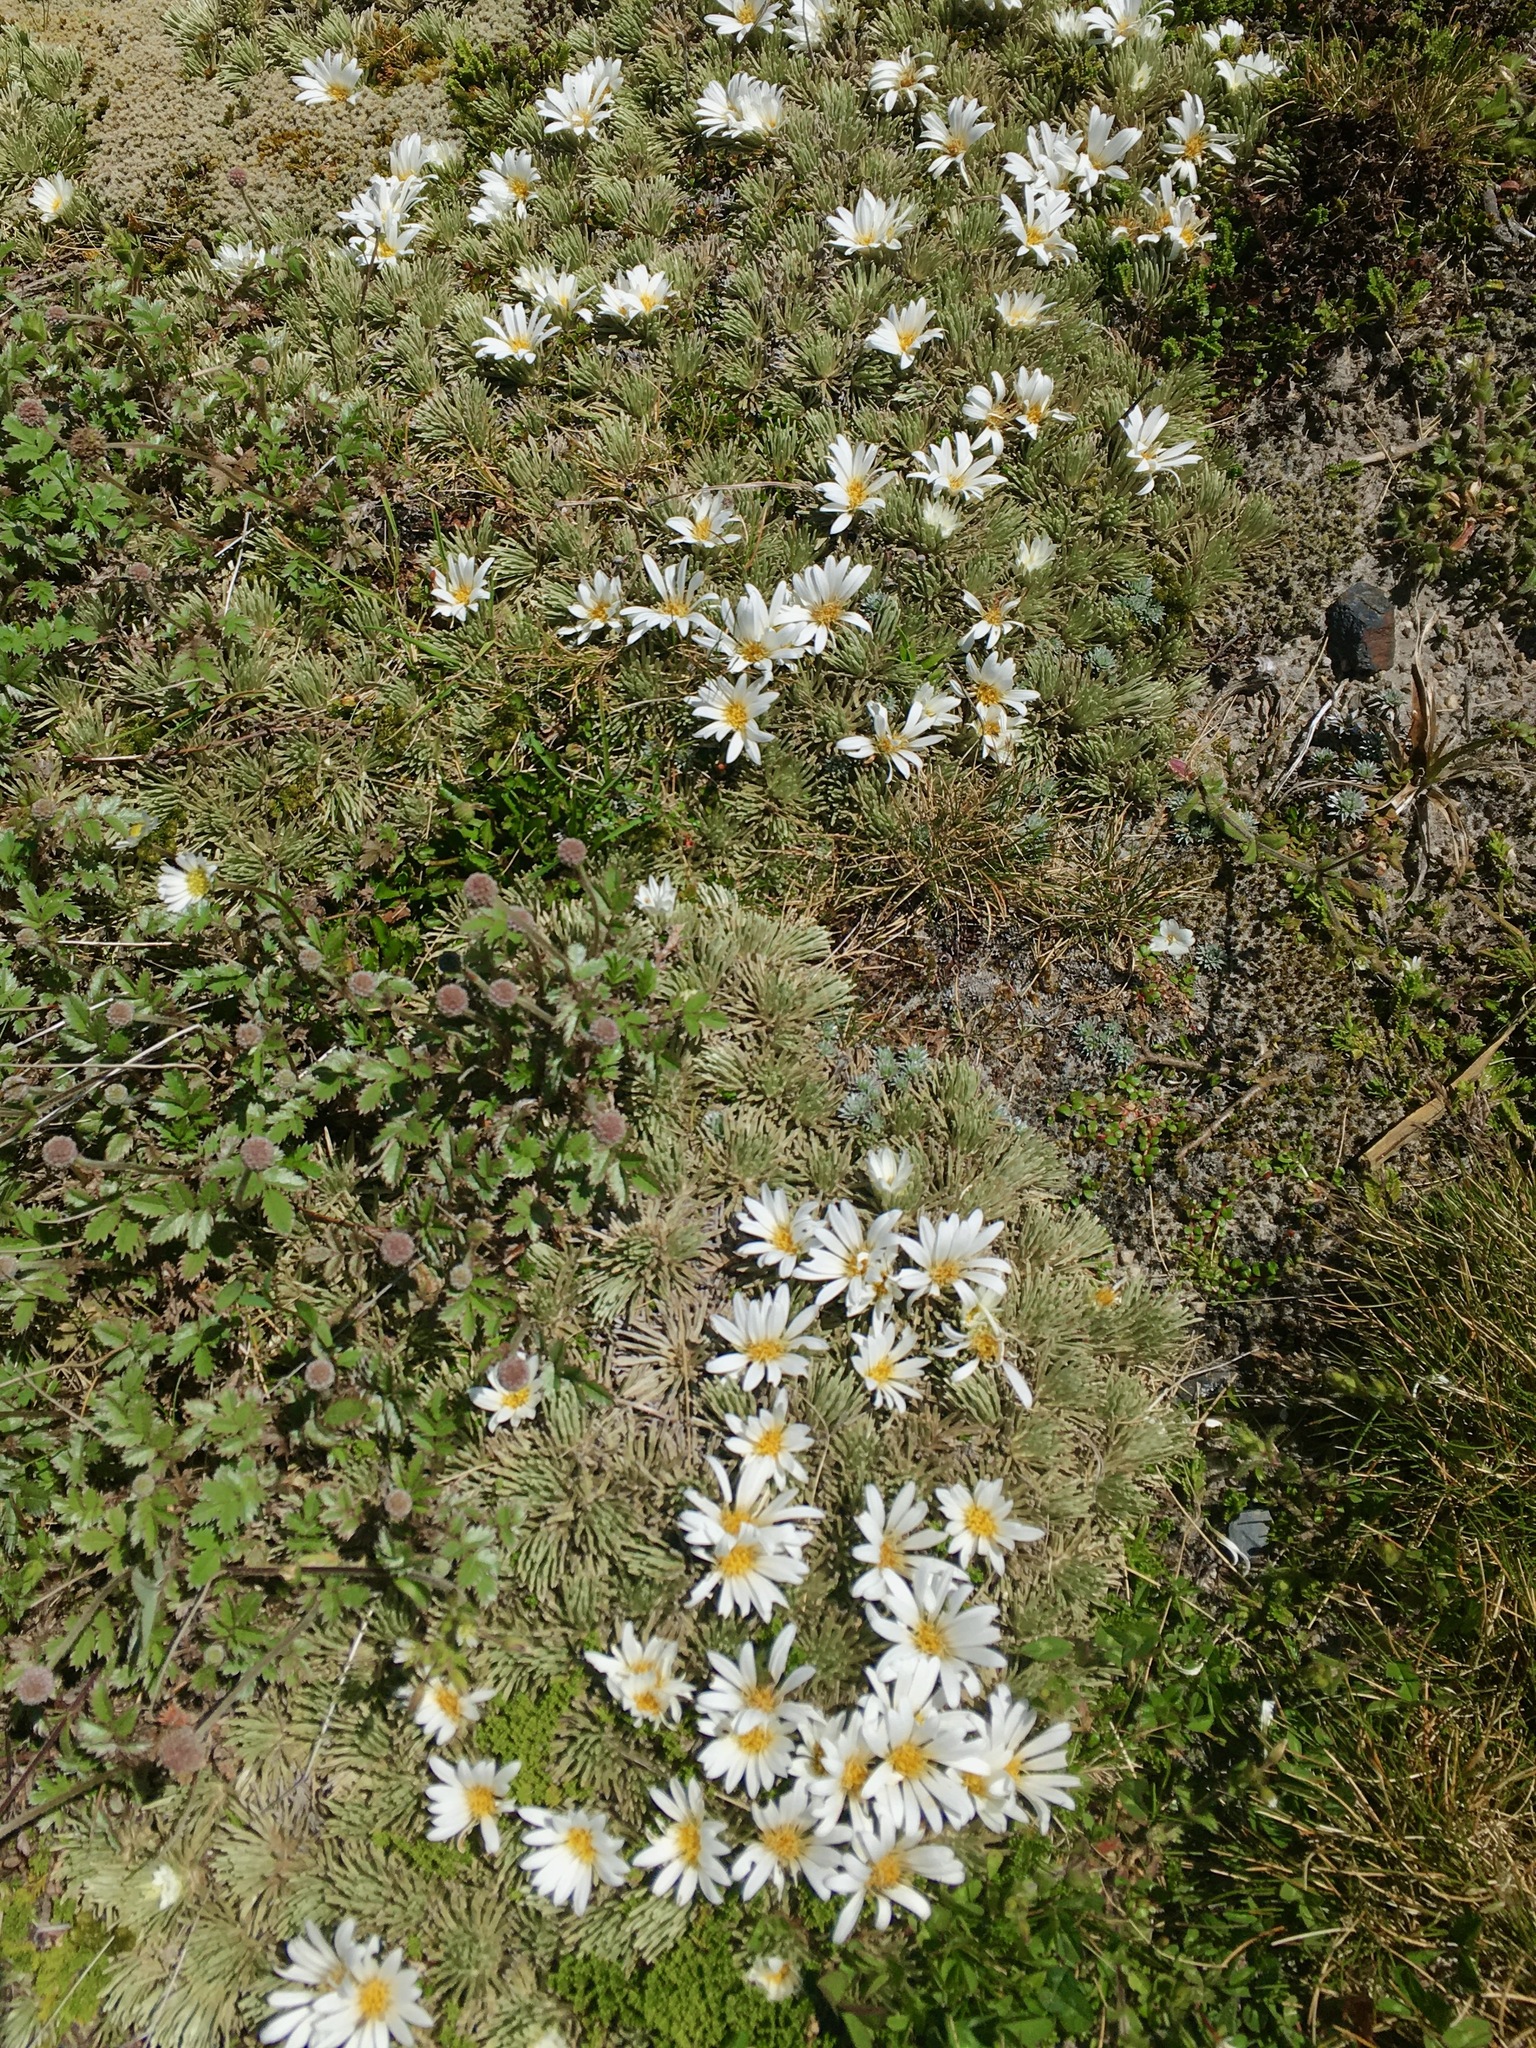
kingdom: Plantae
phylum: Tracheophyta
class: Magnoliopsida
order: Asterales
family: Asteraceae
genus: Celmisia
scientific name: Celmisia sessiliflora
